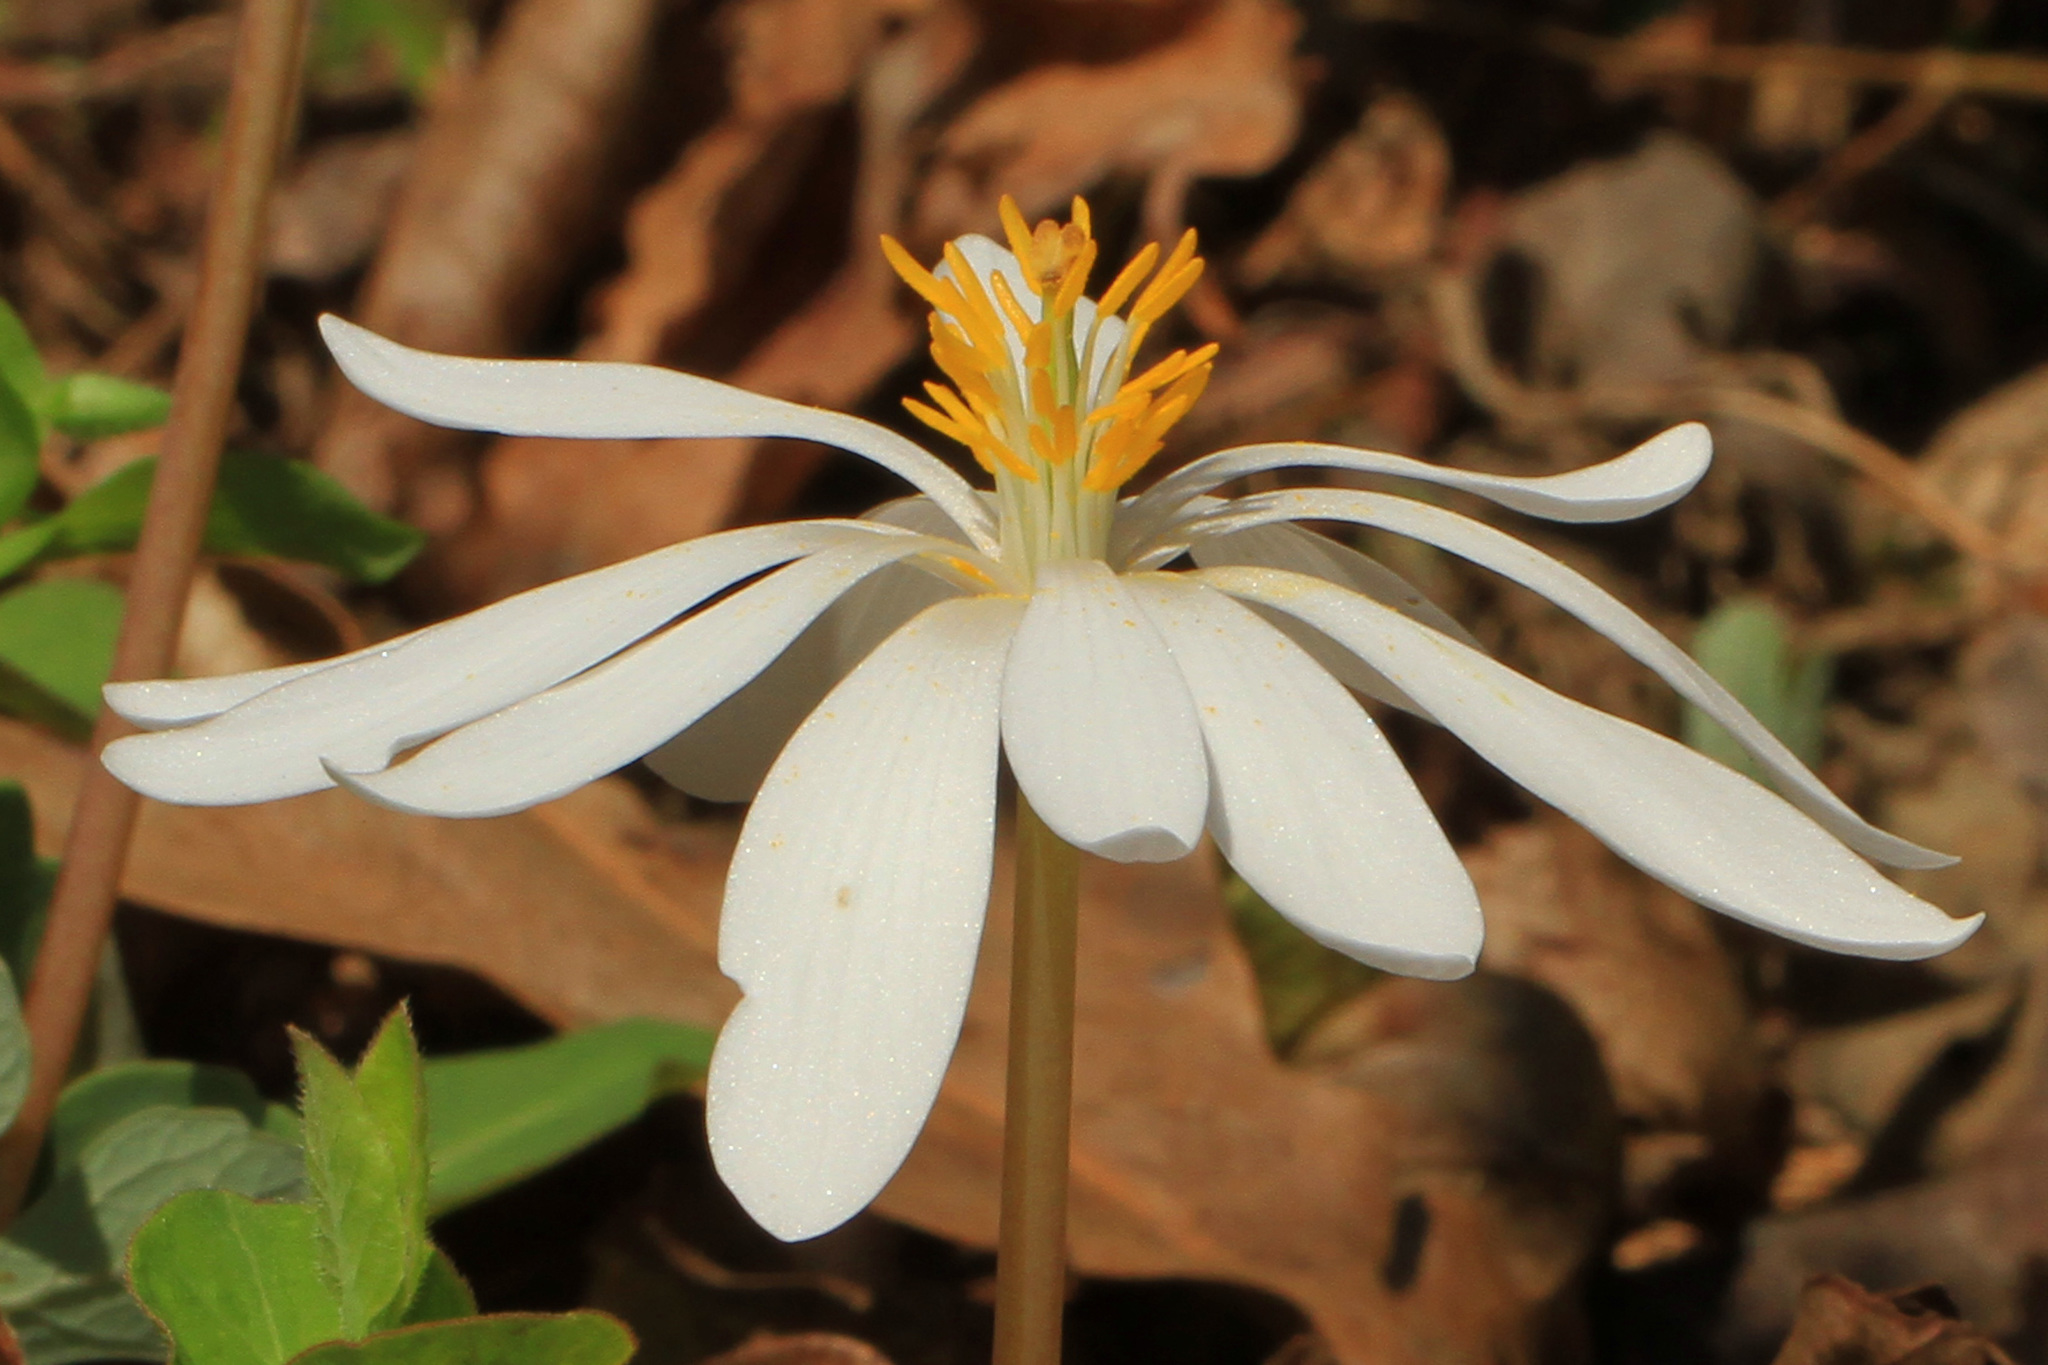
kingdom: Plantae
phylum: Tracheophyta
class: Magnoliopsida
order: Ranunculales
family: Papaveraceae
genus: Sanguinaria
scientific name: Sanguinaria canadensis
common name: Bloodroot
